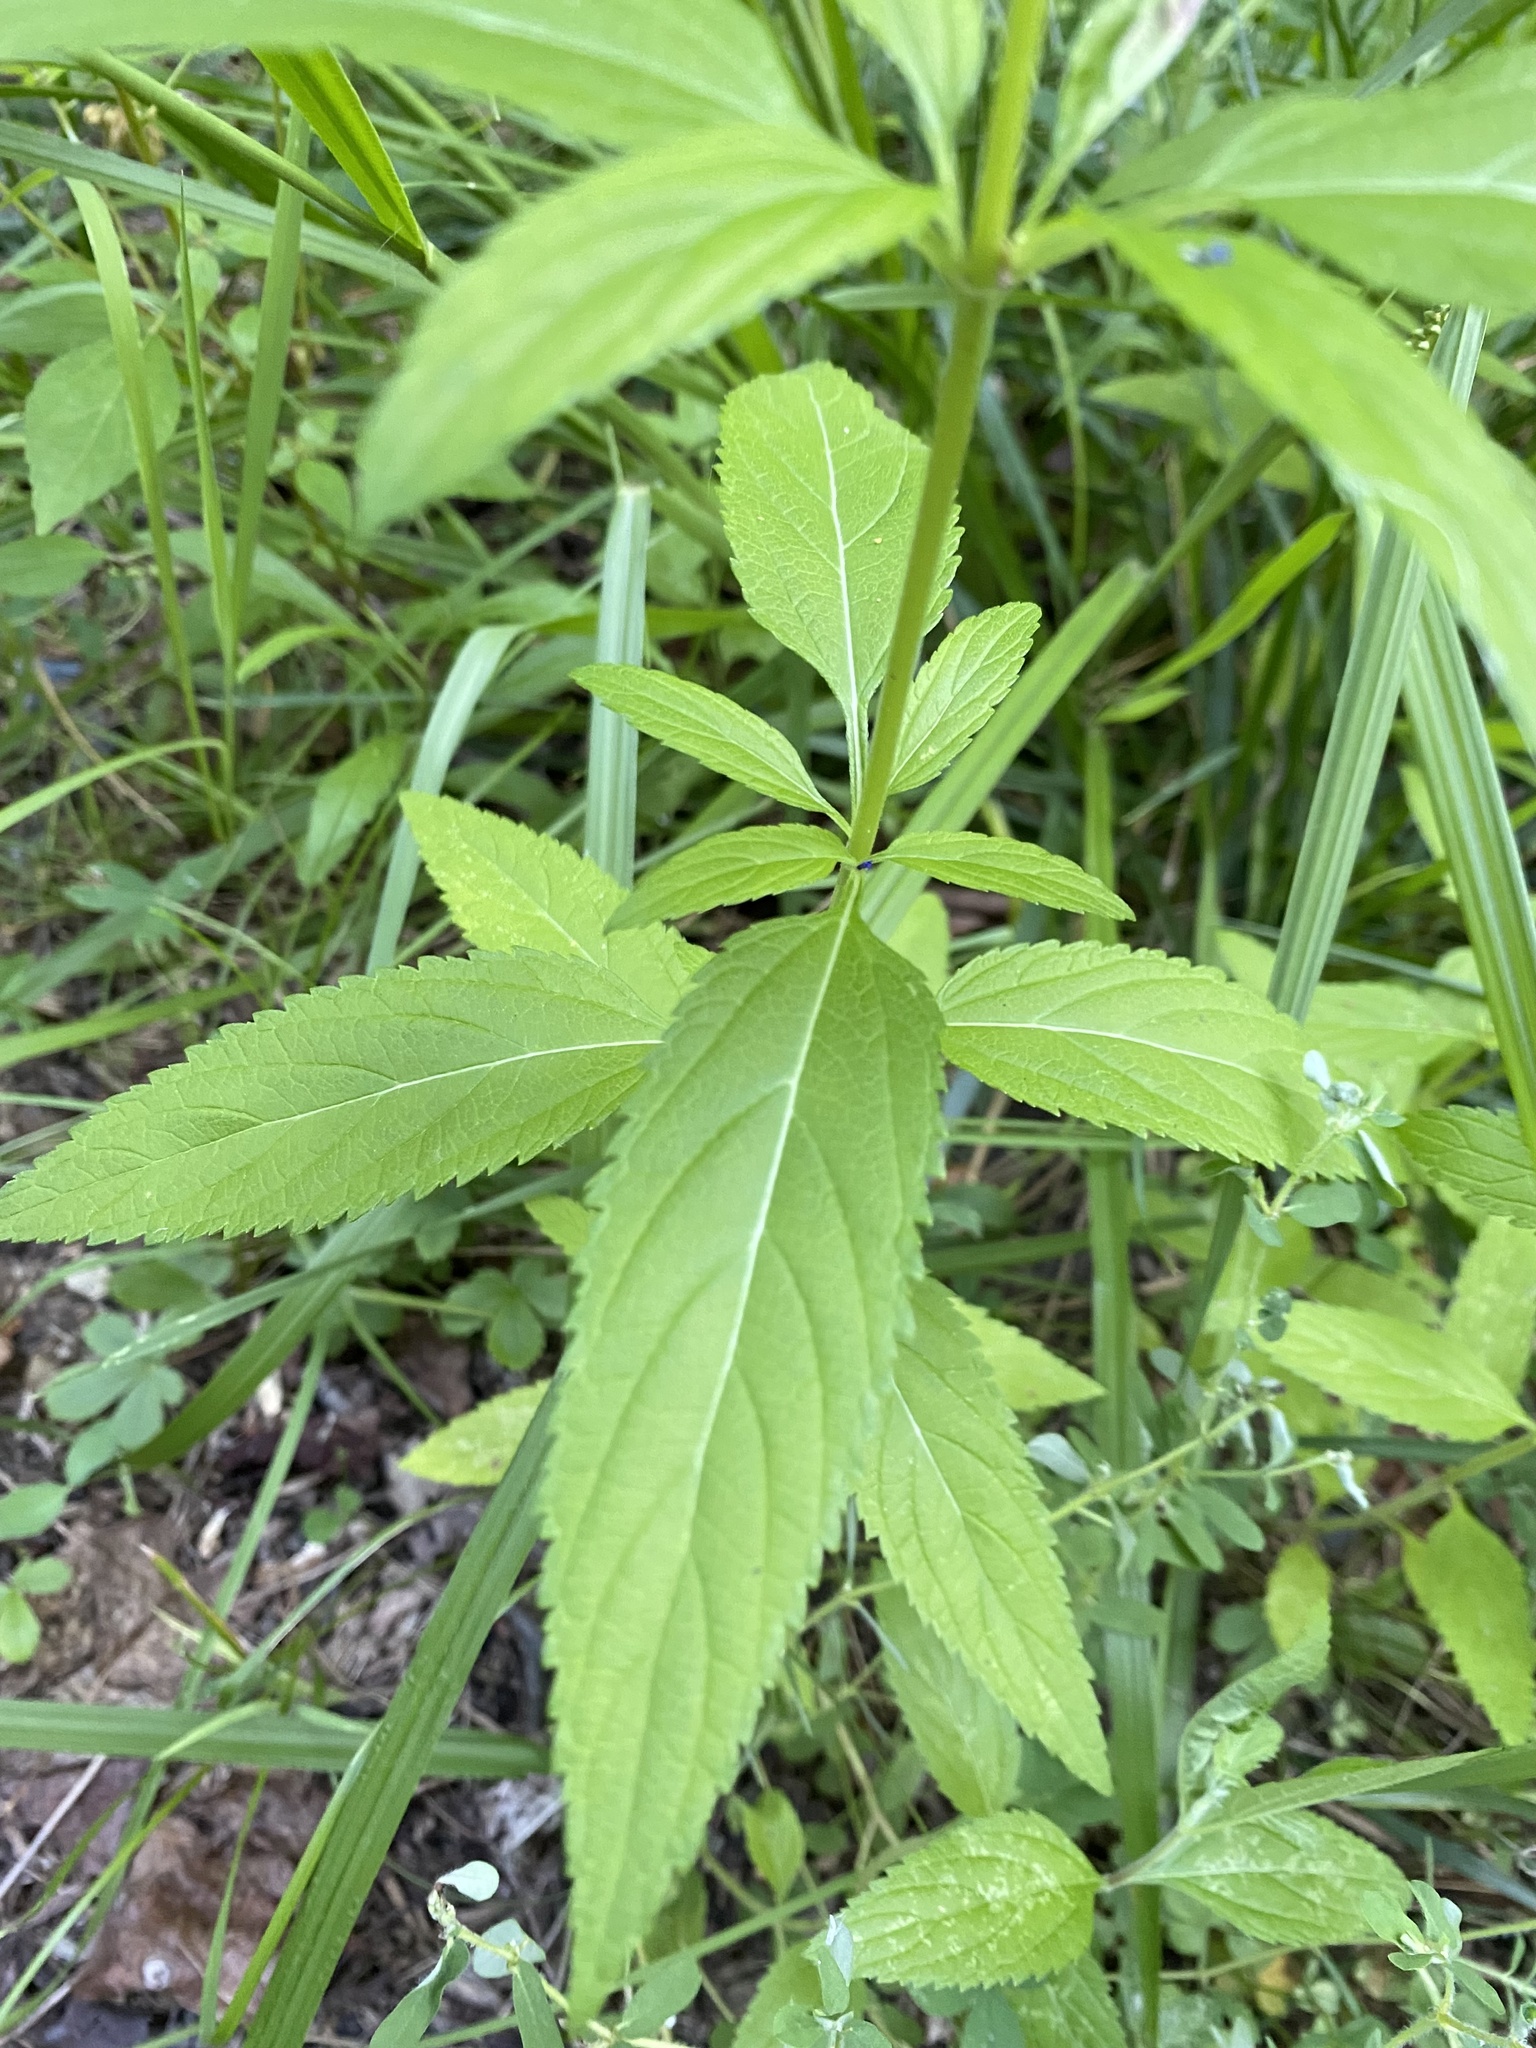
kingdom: Plantae
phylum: Tracheophyta
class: Magnoliopsida
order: Lamiales
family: Verbenaceae
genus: Verbena
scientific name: Verbena hastata
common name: American blue vervain
